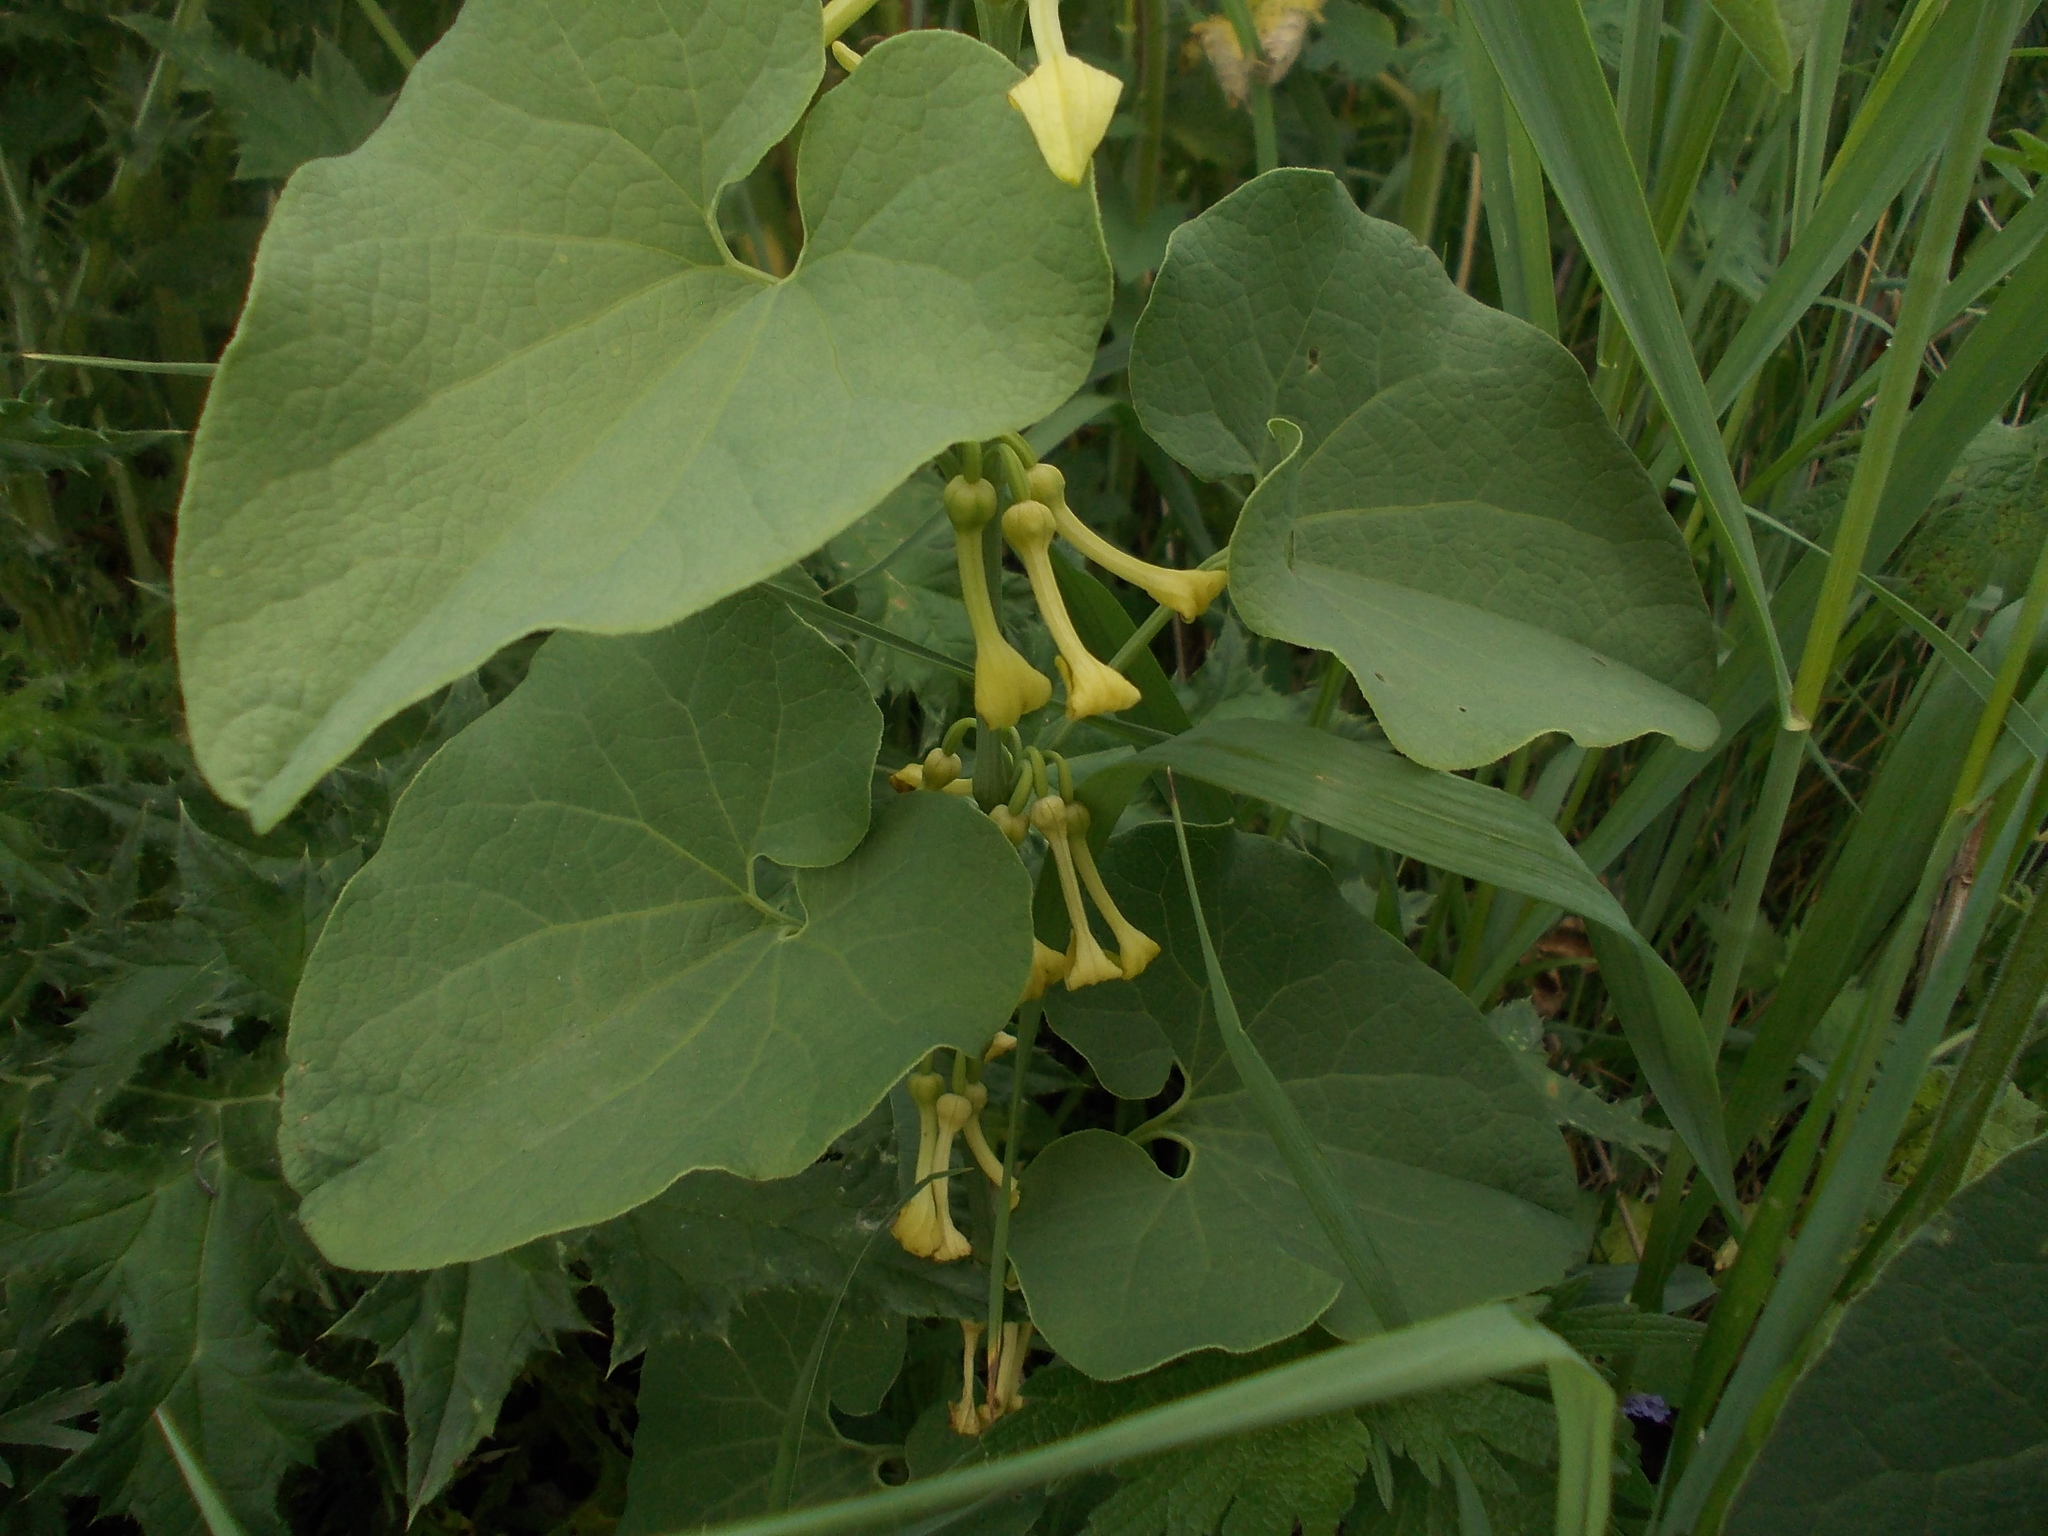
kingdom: Plantae
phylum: Tracheophyta
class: Magnoliopsida
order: Piperales
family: Aristolochiaceae
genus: Aristolochia
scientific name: Aristolochia clematitis
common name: Birthwort
